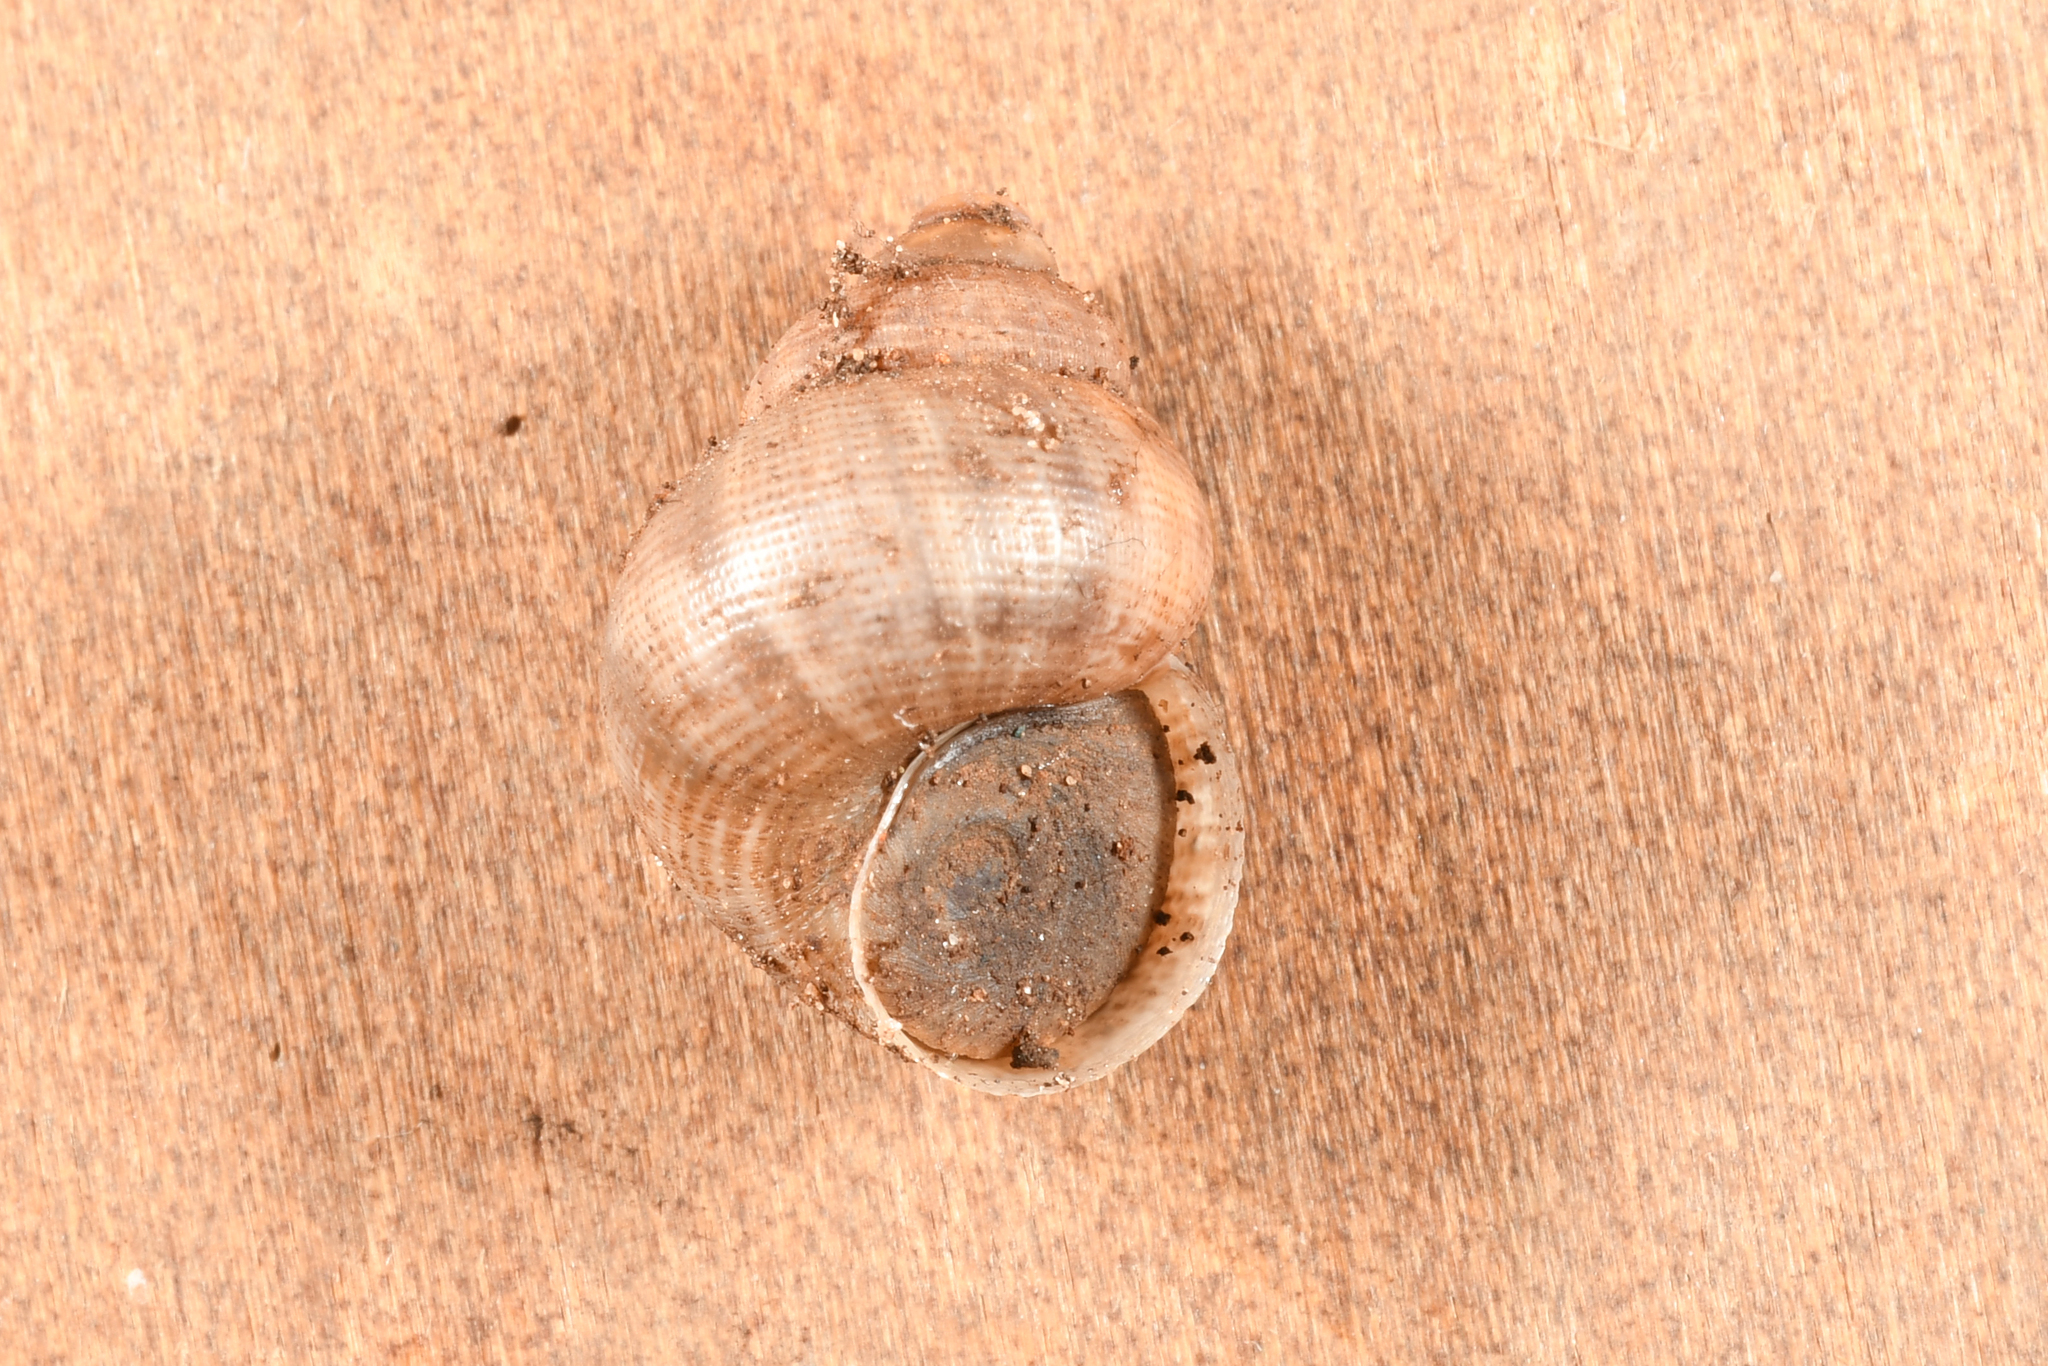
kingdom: Animalia
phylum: Mollusca
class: Gastropoda
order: Littorinimorpha
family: Pomatiidae
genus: Pomatias
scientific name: Pomatias elegans
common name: Red-mouthed snail
